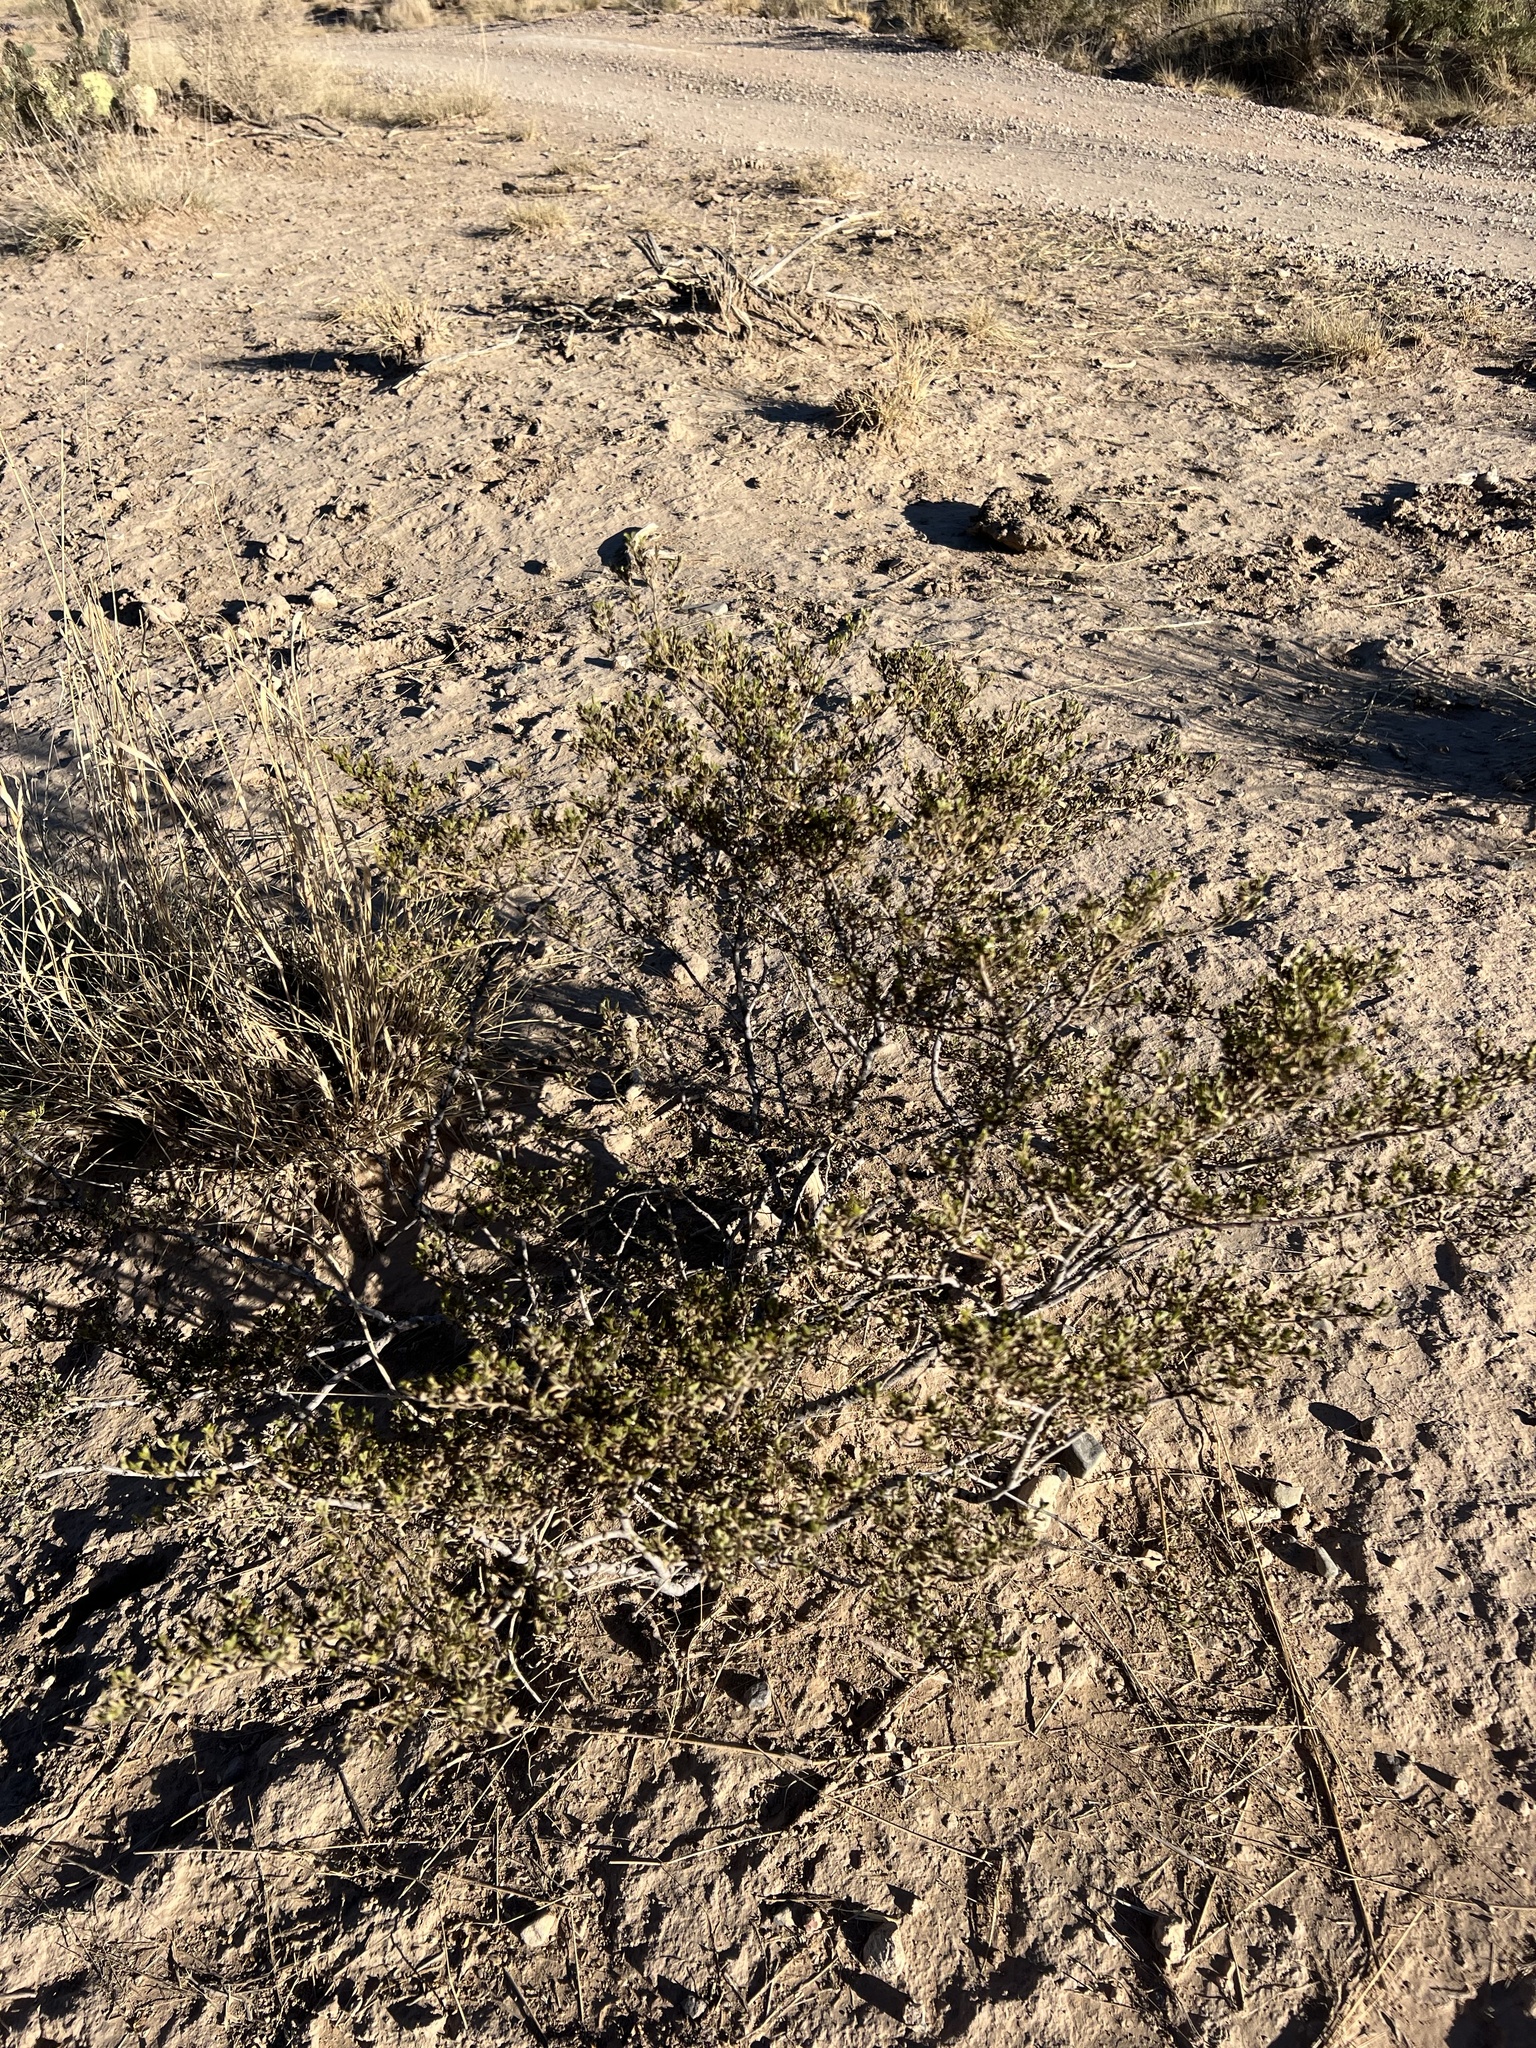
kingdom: Plantae
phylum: Tracheophyta
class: Magnoliopsida
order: Zygophyllales
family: Zygophyllaceae
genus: Larrea
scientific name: Larrea tridentata
